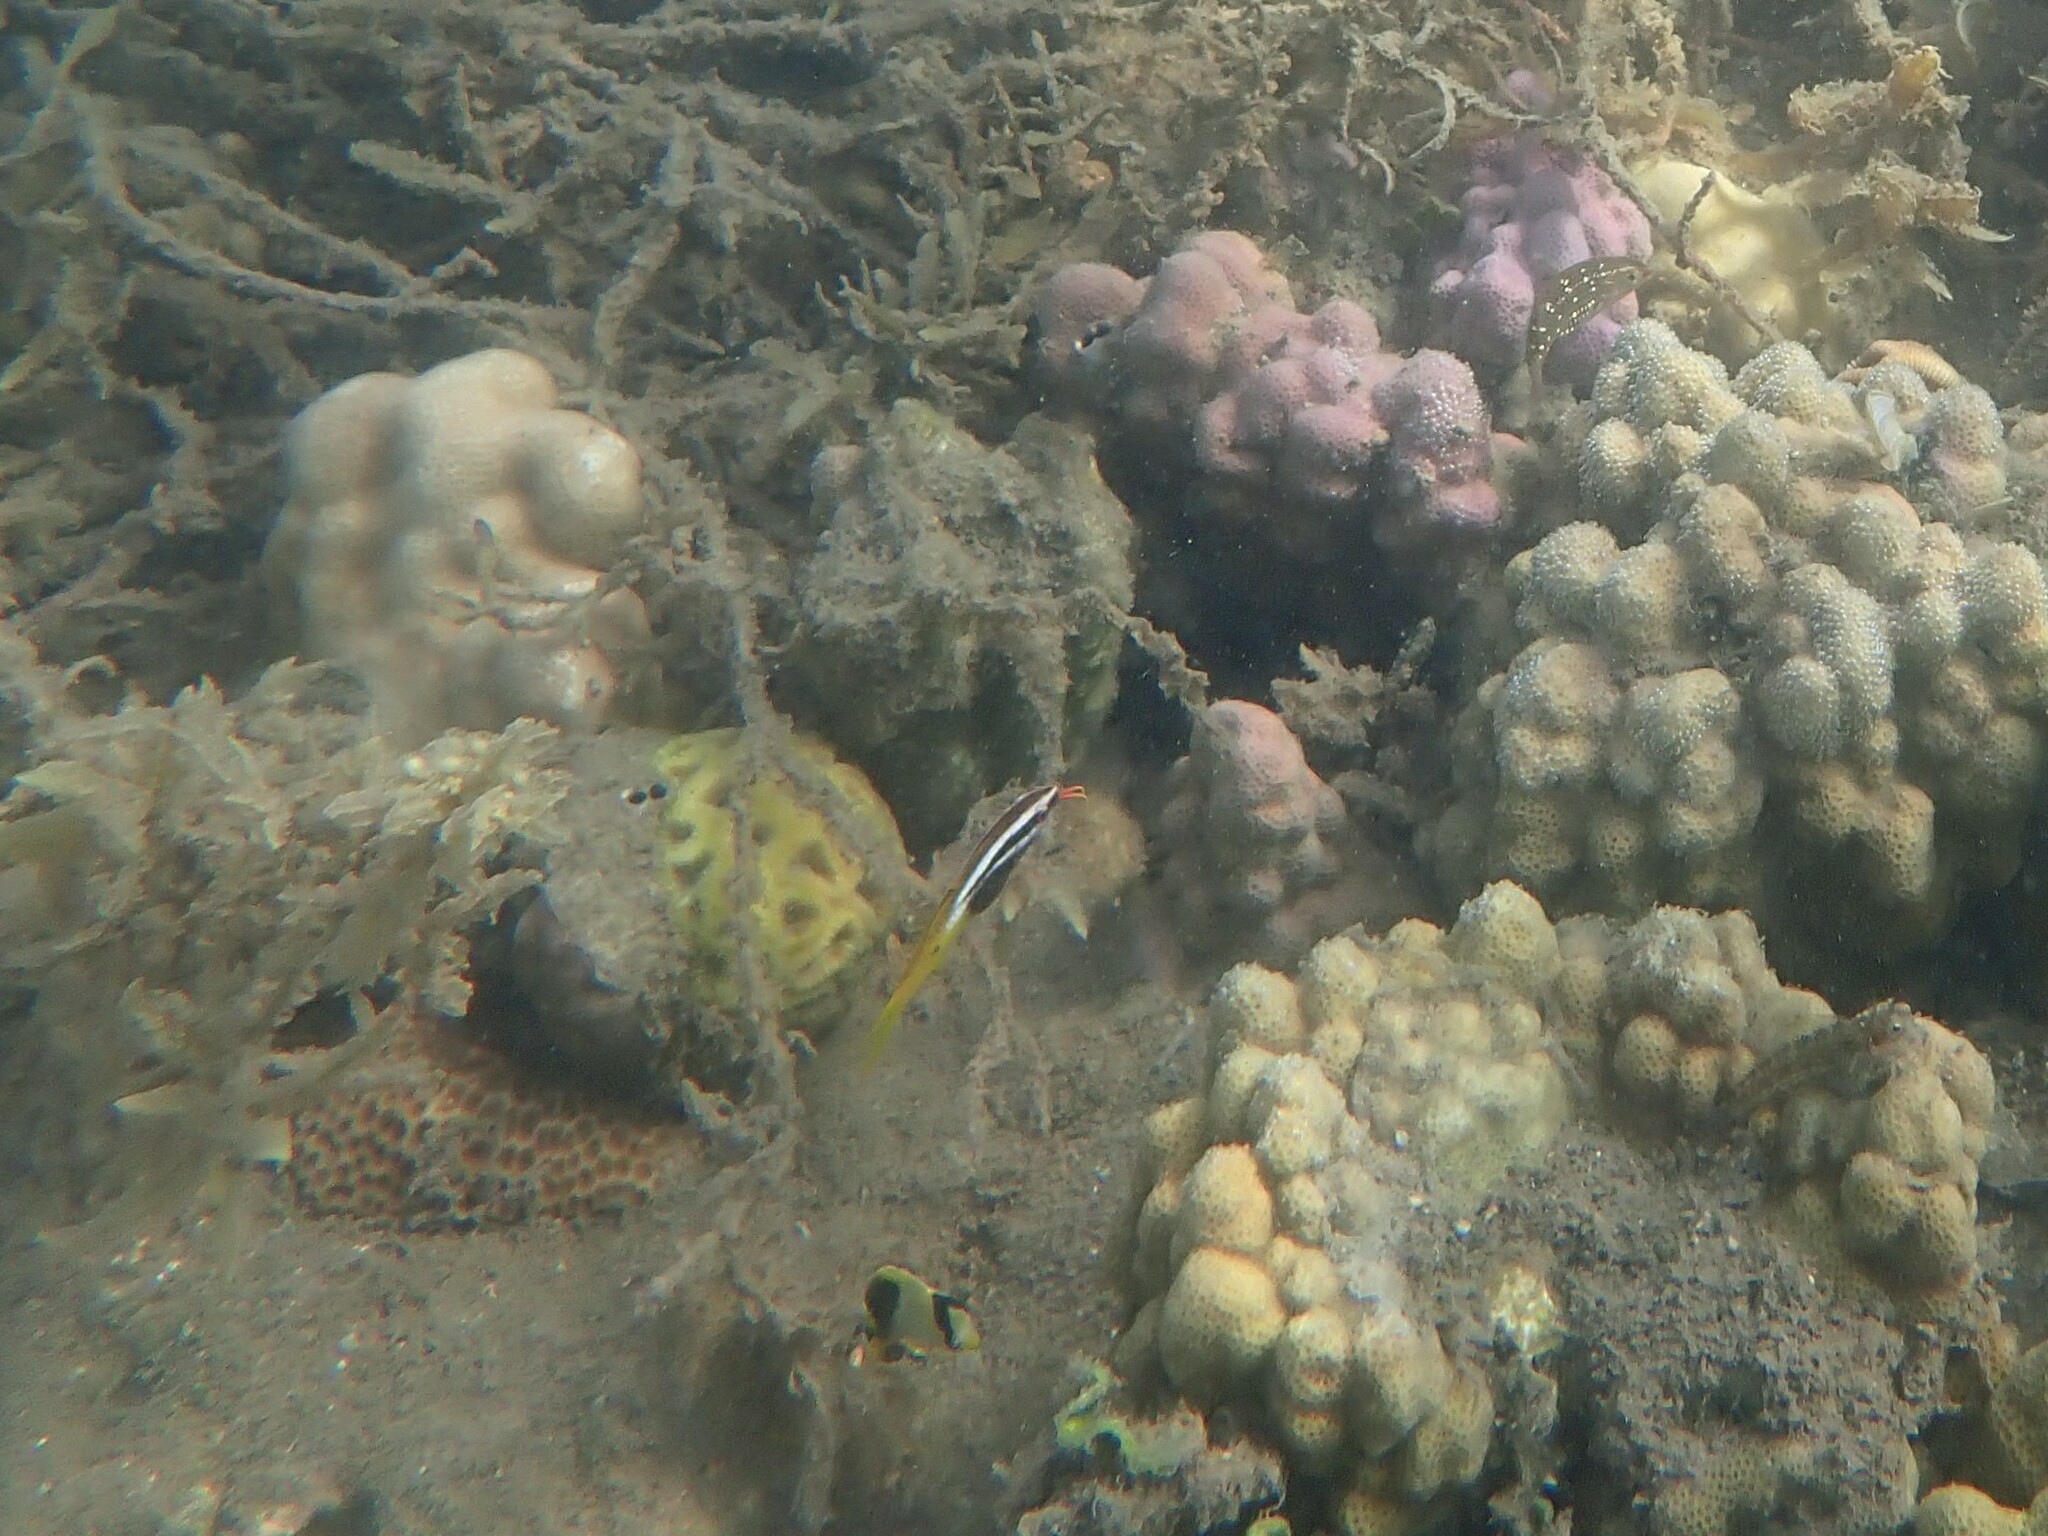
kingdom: Animalia
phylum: Chordata
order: Perciformes
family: Mullidae
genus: Parupeneus
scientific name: Parupeneus barberinoides
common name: Half-and-half goatfish
